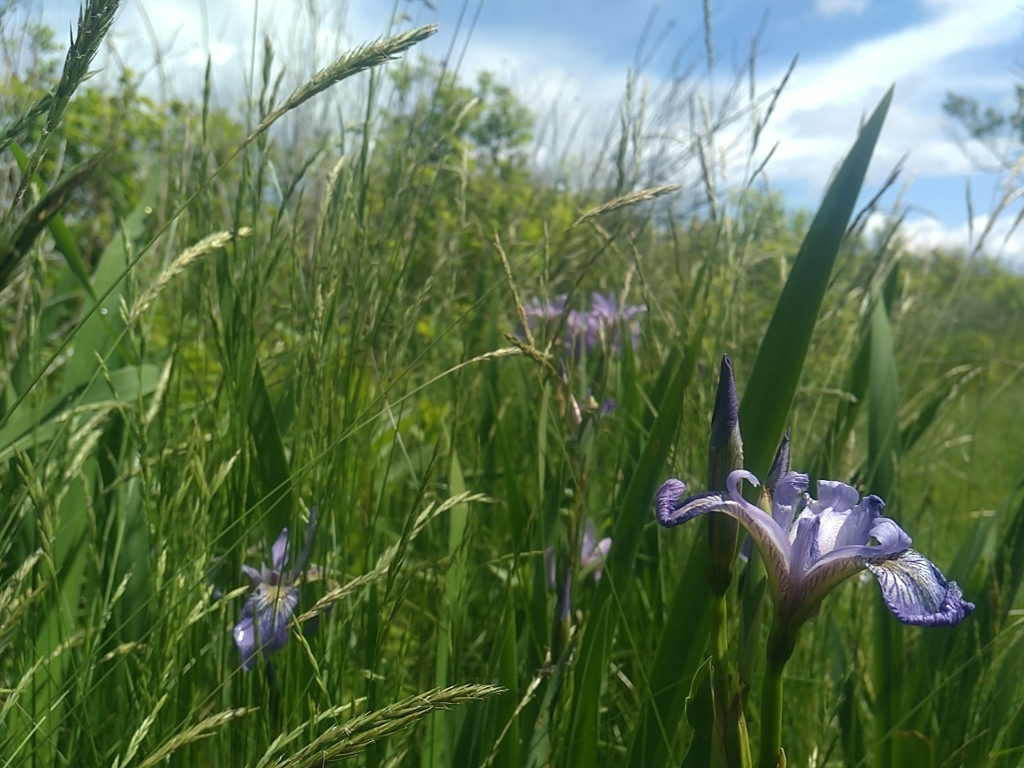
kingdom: Plantae
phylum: Tracheophyta
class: Liliopsida
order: Asparagales
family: Iridaceae
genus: Iris
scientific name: Iris versicolor
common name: Purple iris
